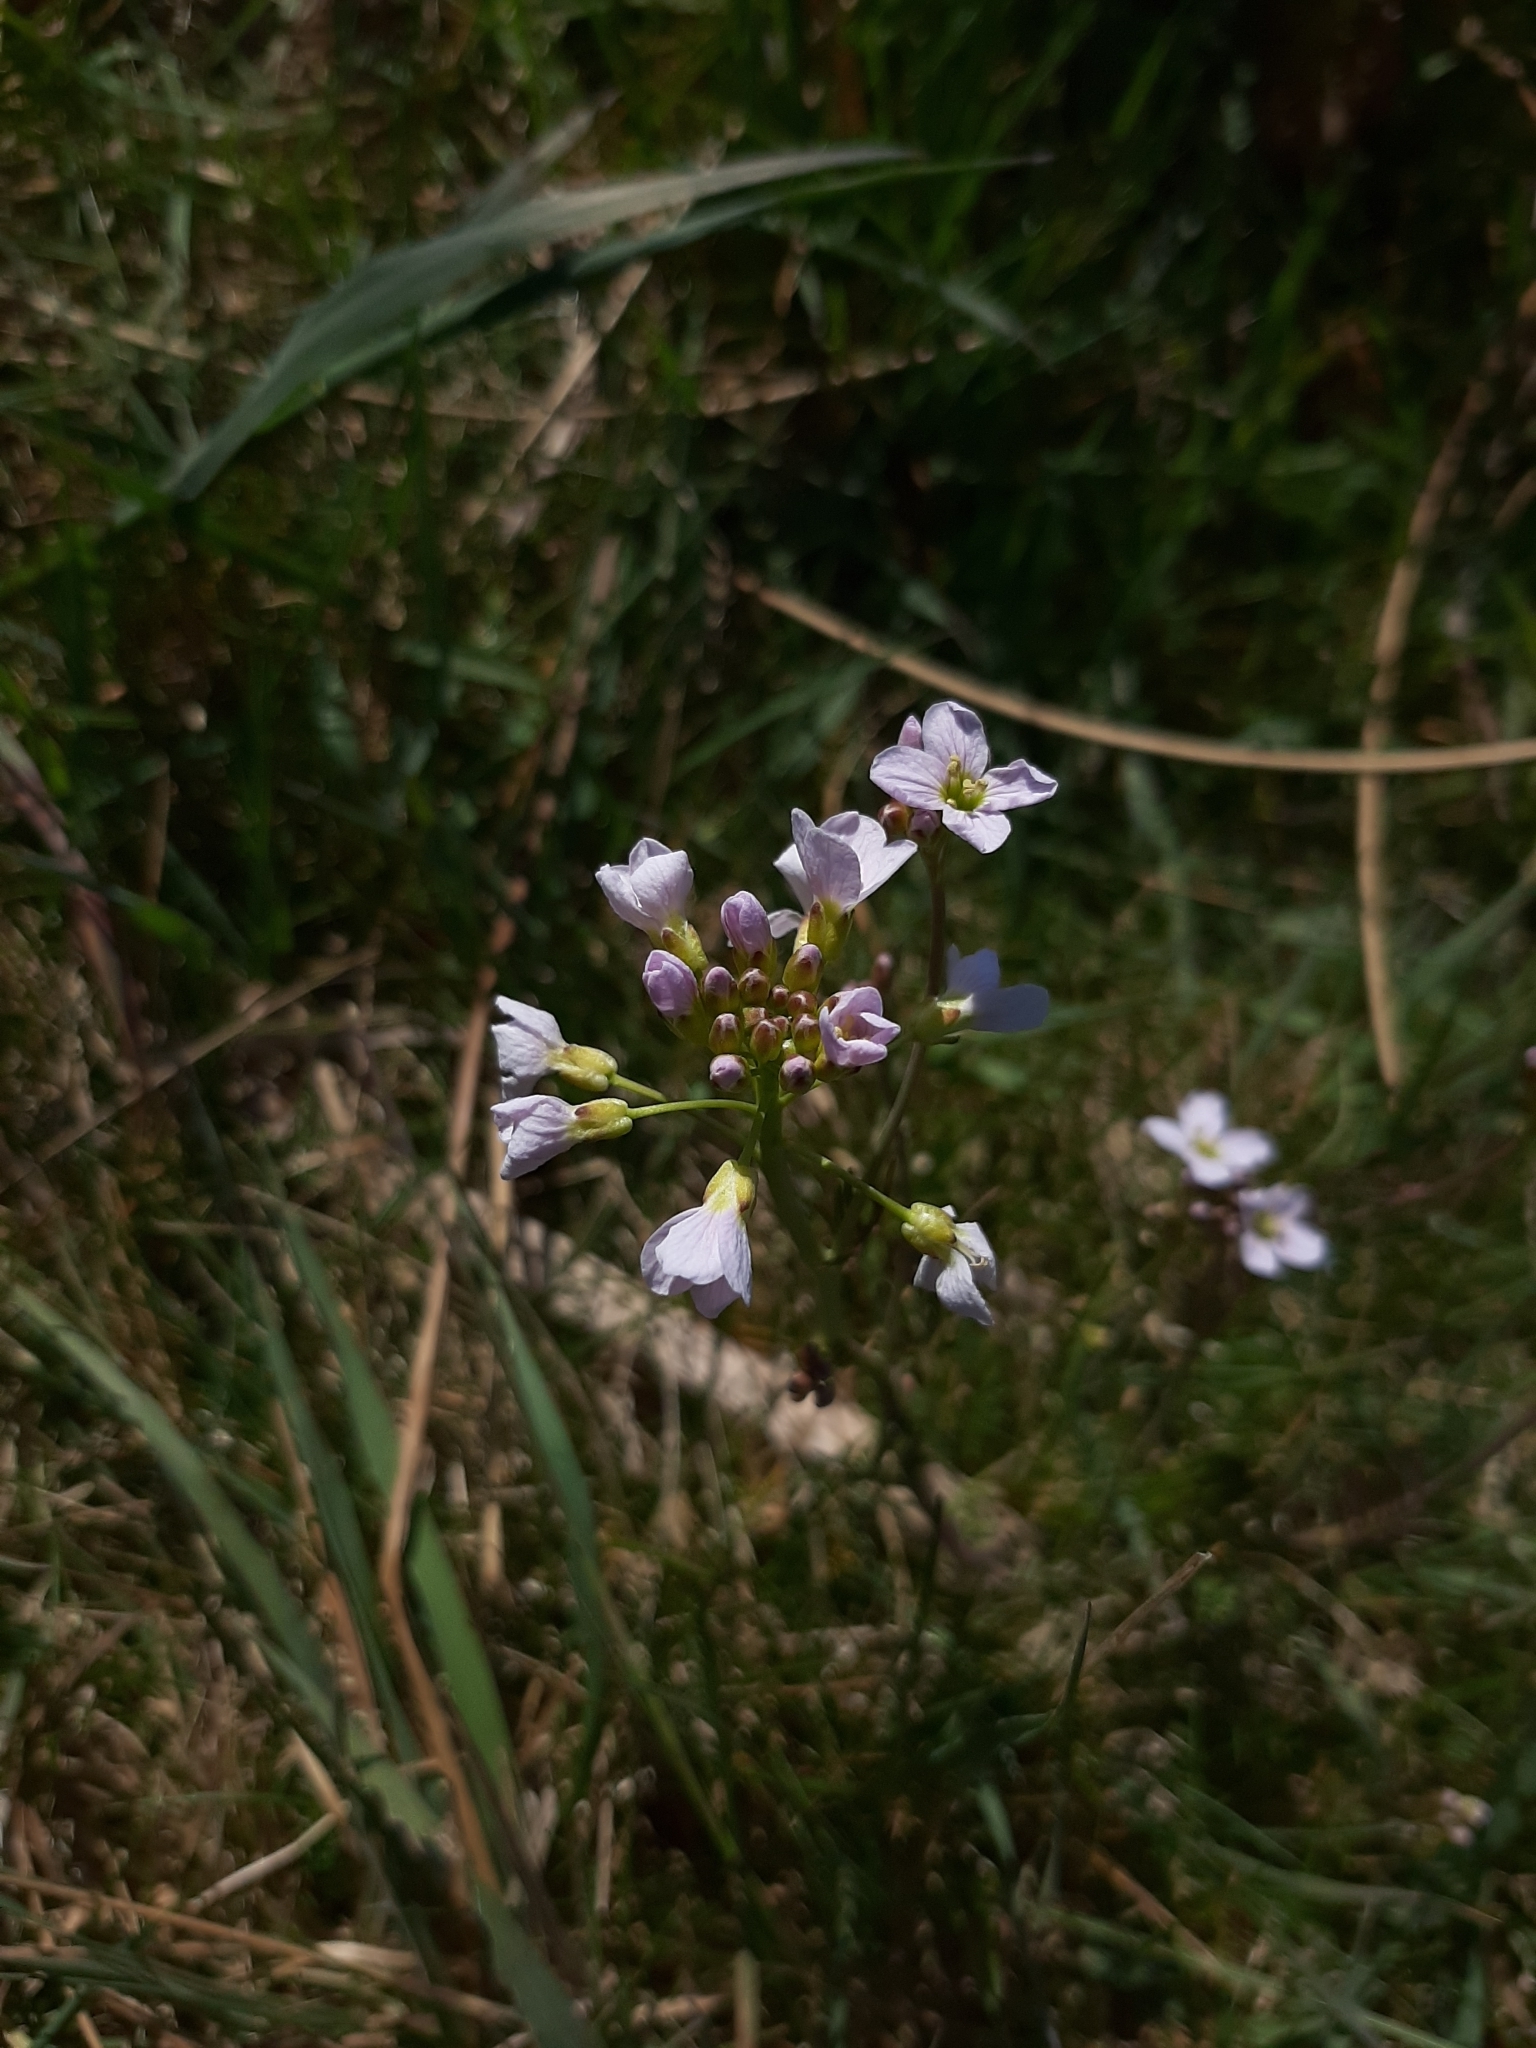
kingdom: Plantae
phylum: Tracheophyta
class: Magnoliopsida
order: Brassicales
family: Brassicaceae
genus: Cardamine
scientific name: Cardamine pratensis
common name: Cuckoo flower
